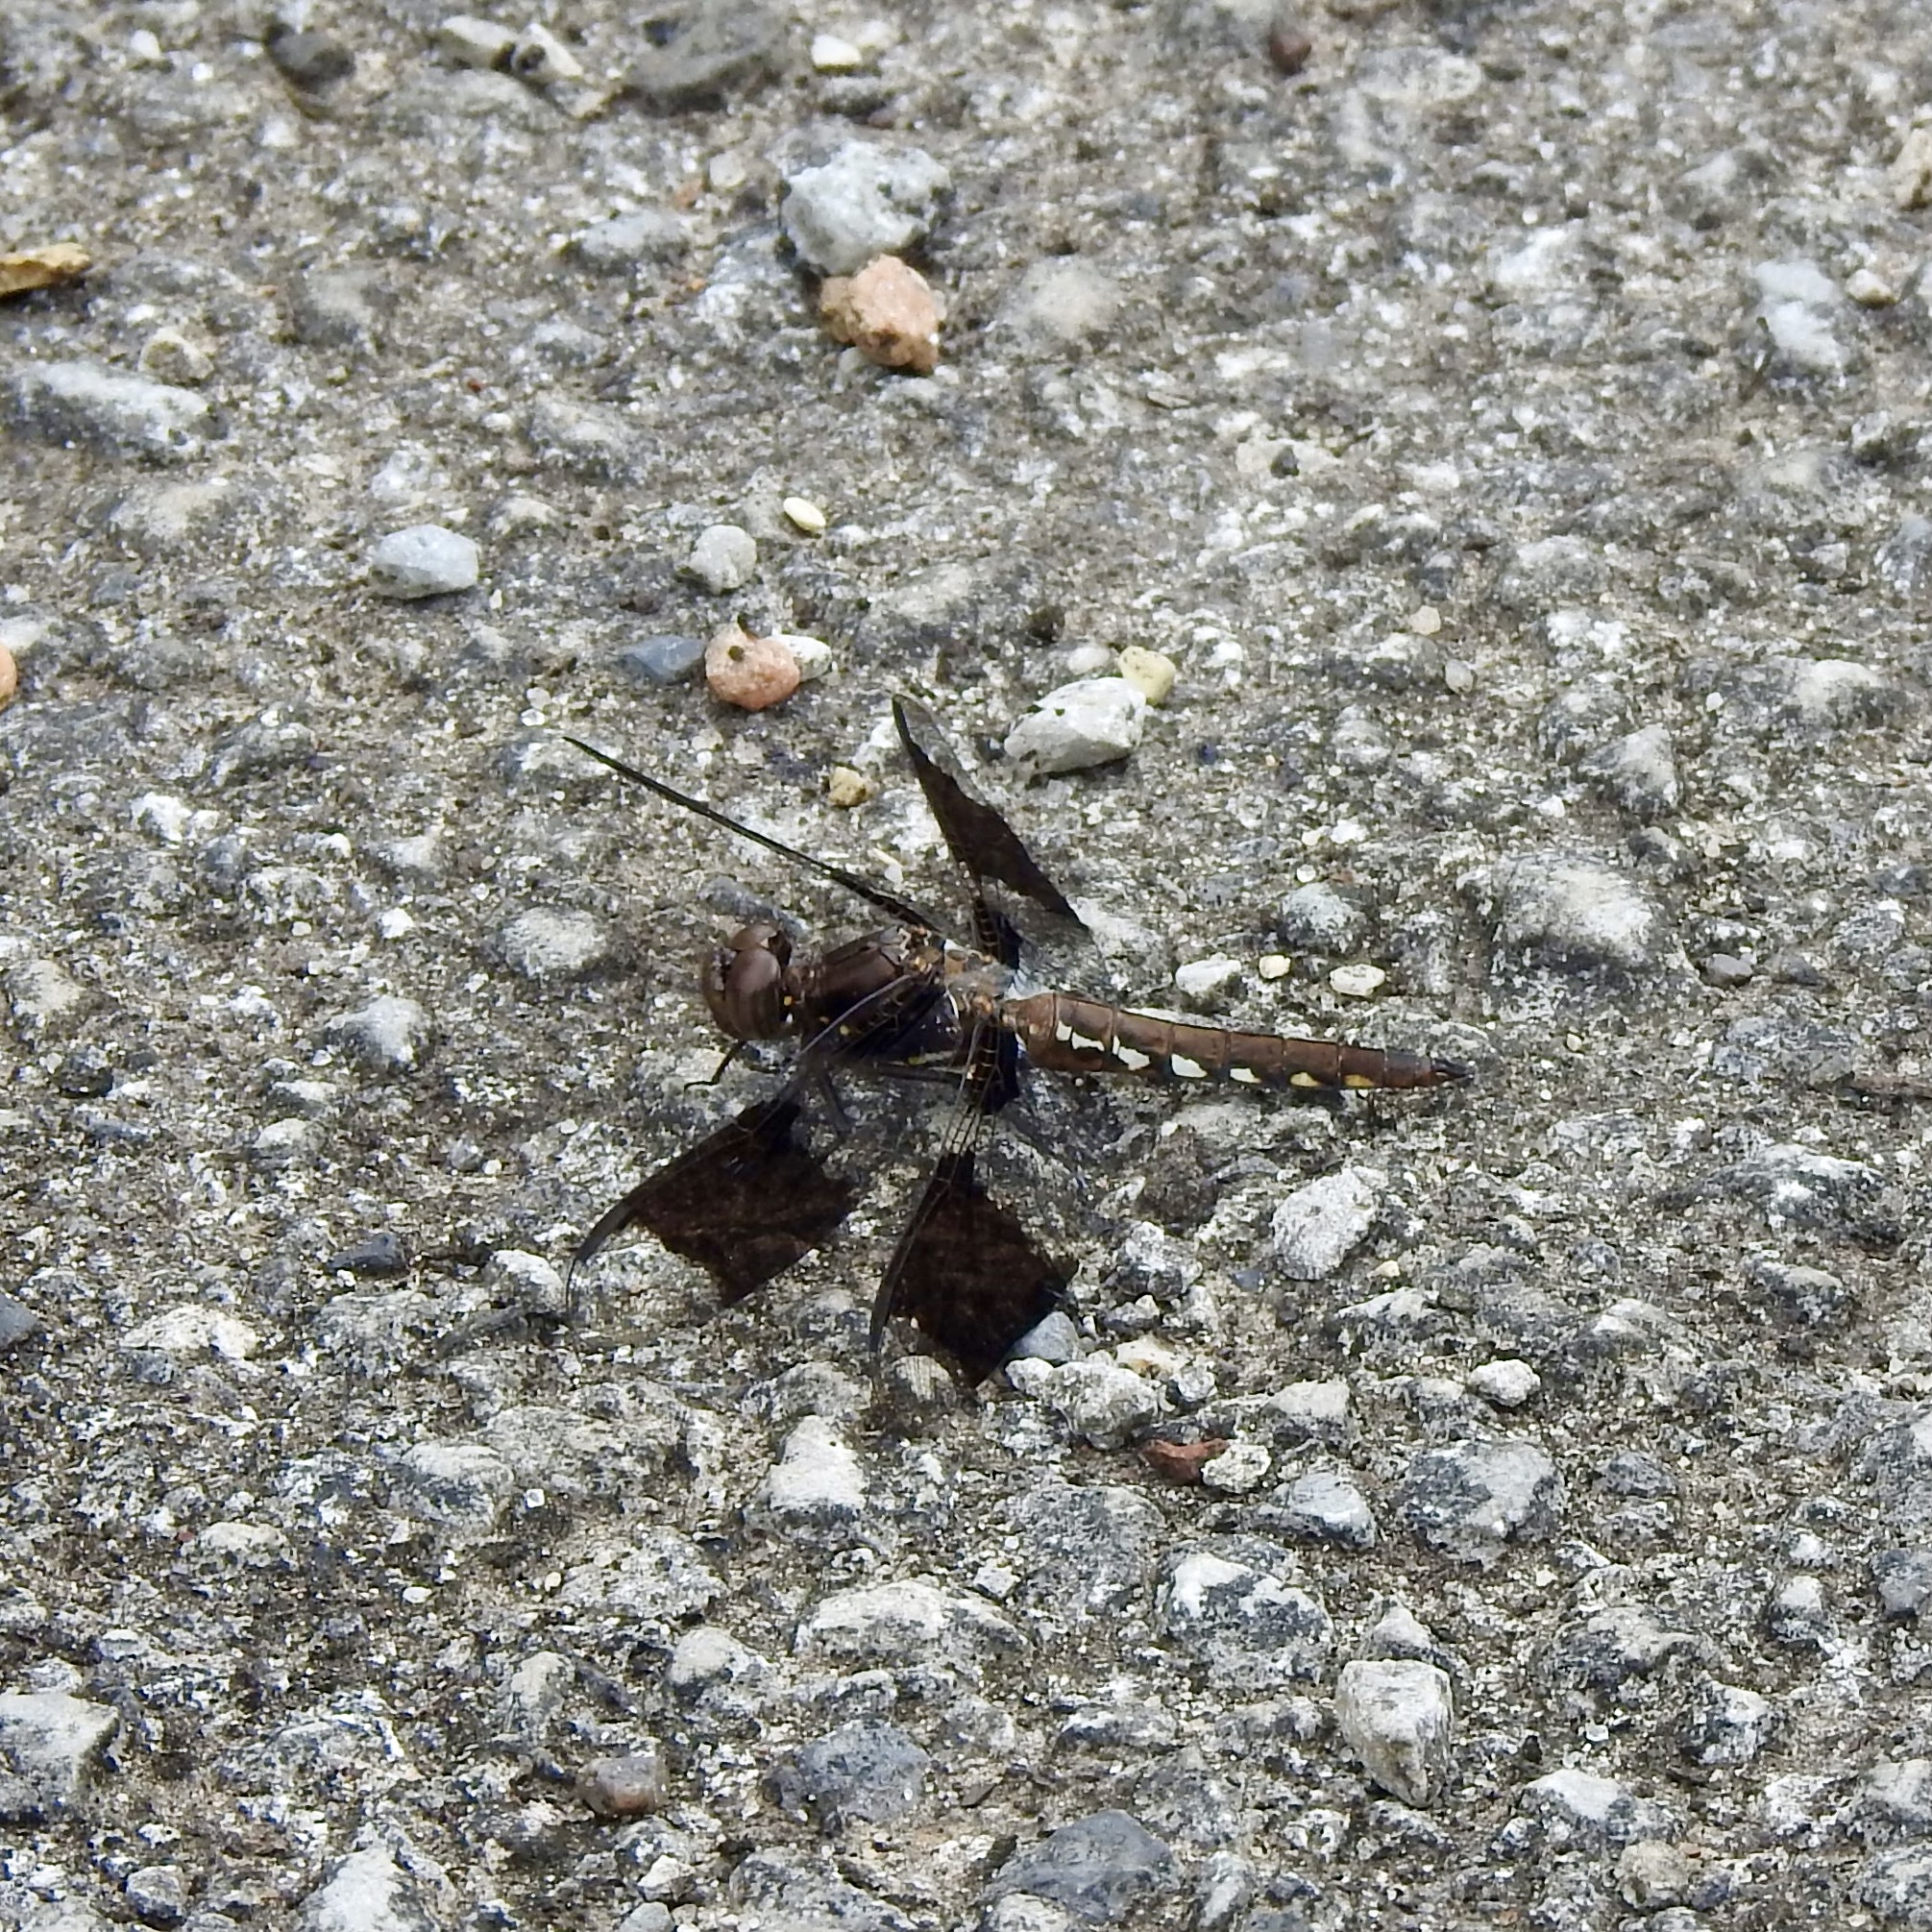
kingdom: Animalia
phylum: Arthropoda
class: Insecta
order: Odonata
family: Libellulidae
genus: Plathemis
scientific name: Plathemis lydia
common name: Common whitetail
